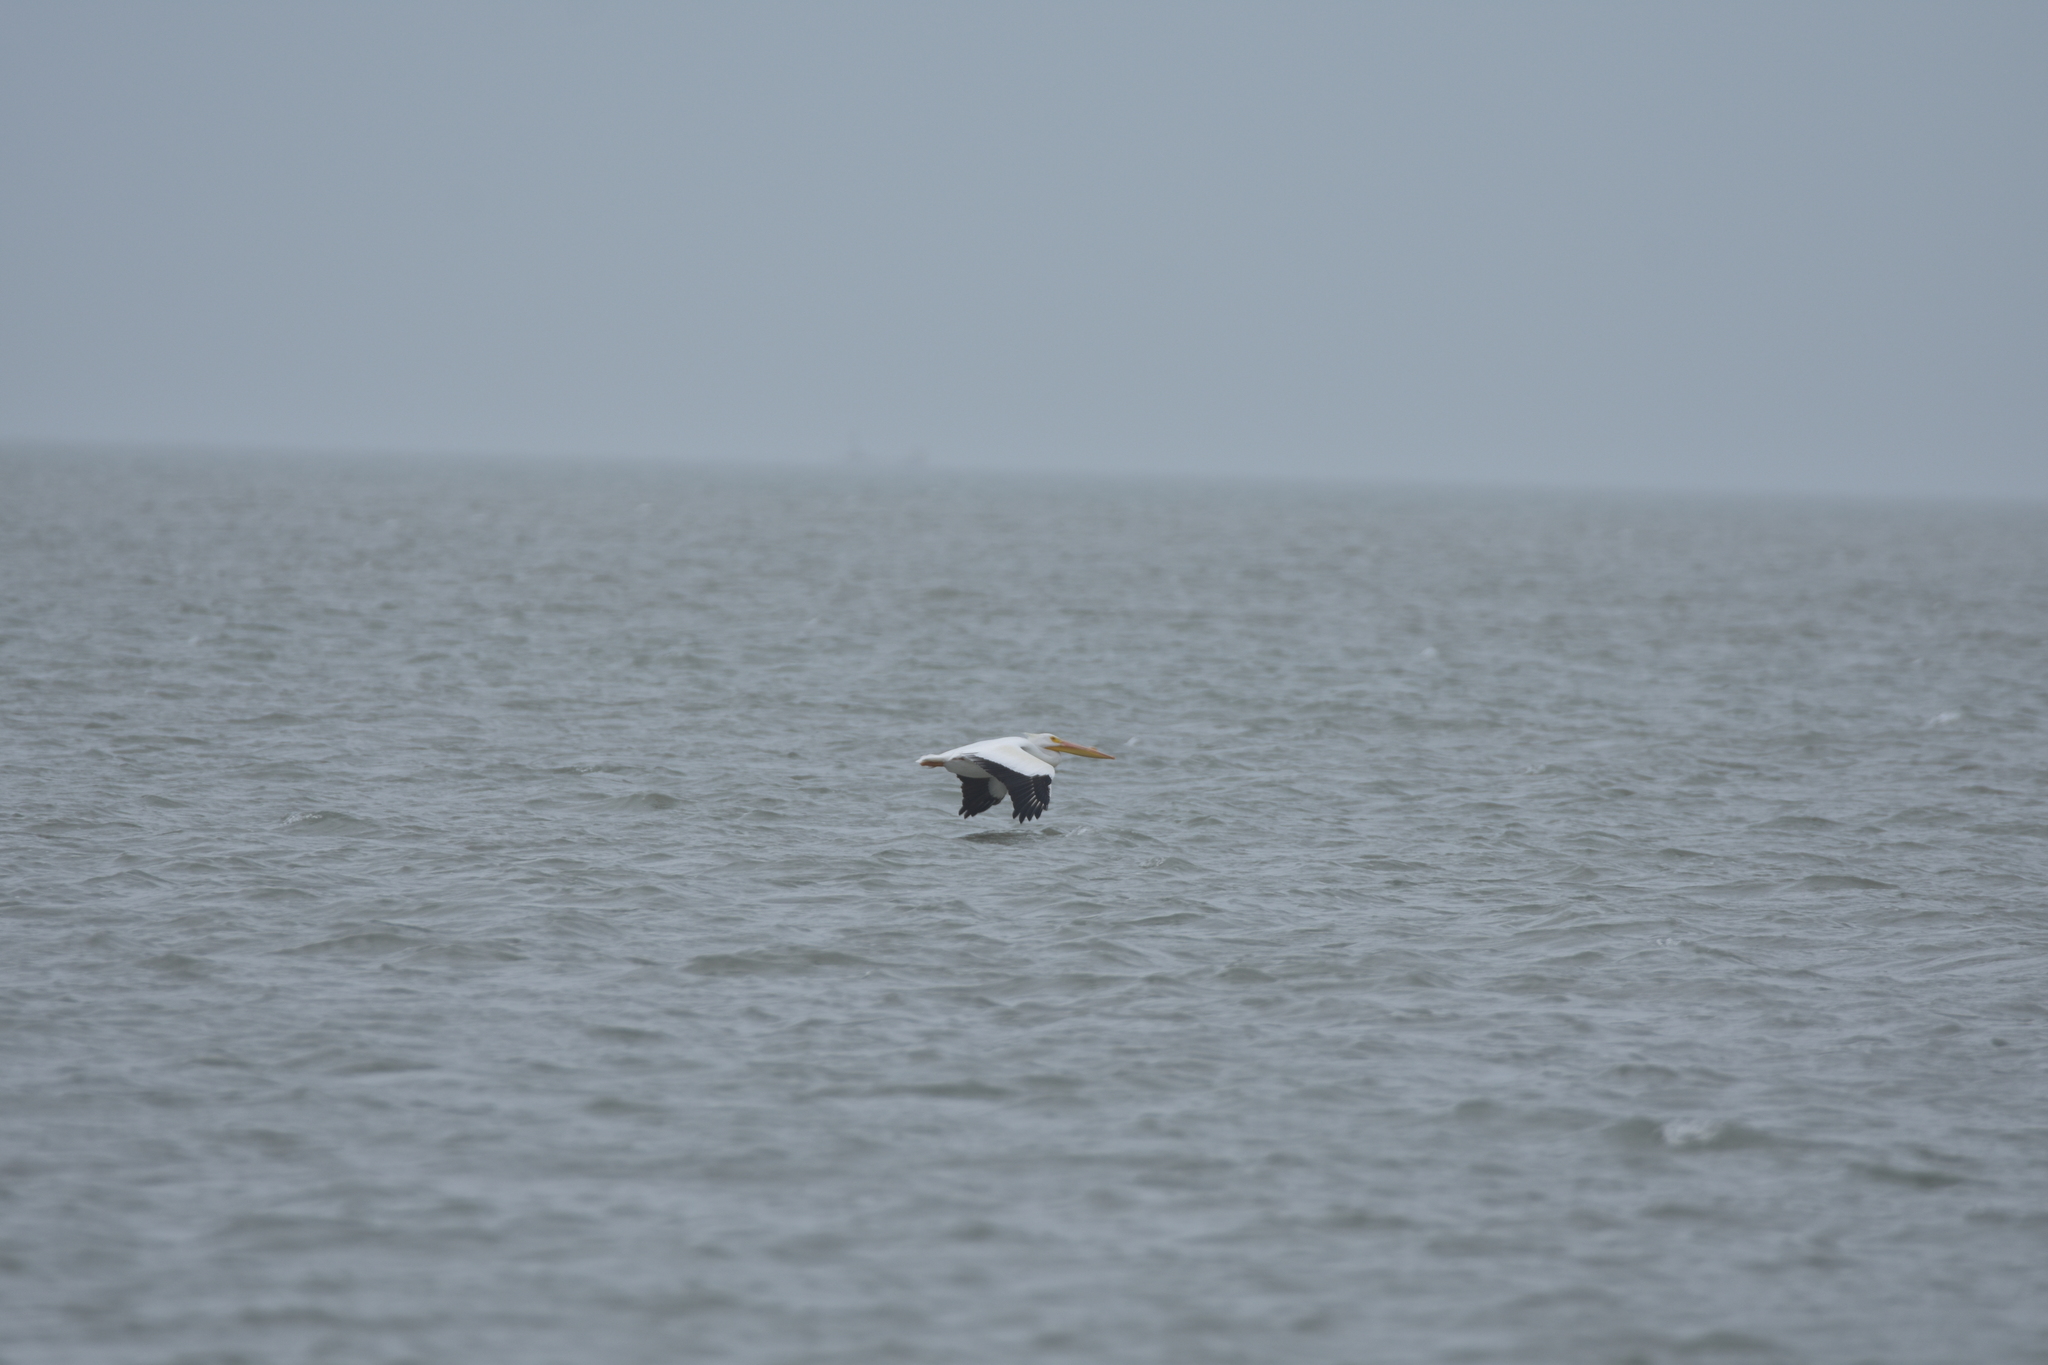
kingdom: Animalia
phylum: Chordata
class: Aves
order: Pelecaniformes
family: Pelecanidae
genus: Pelecanus
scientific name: Pelecanus erythrorhynchos
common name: American white pelican
